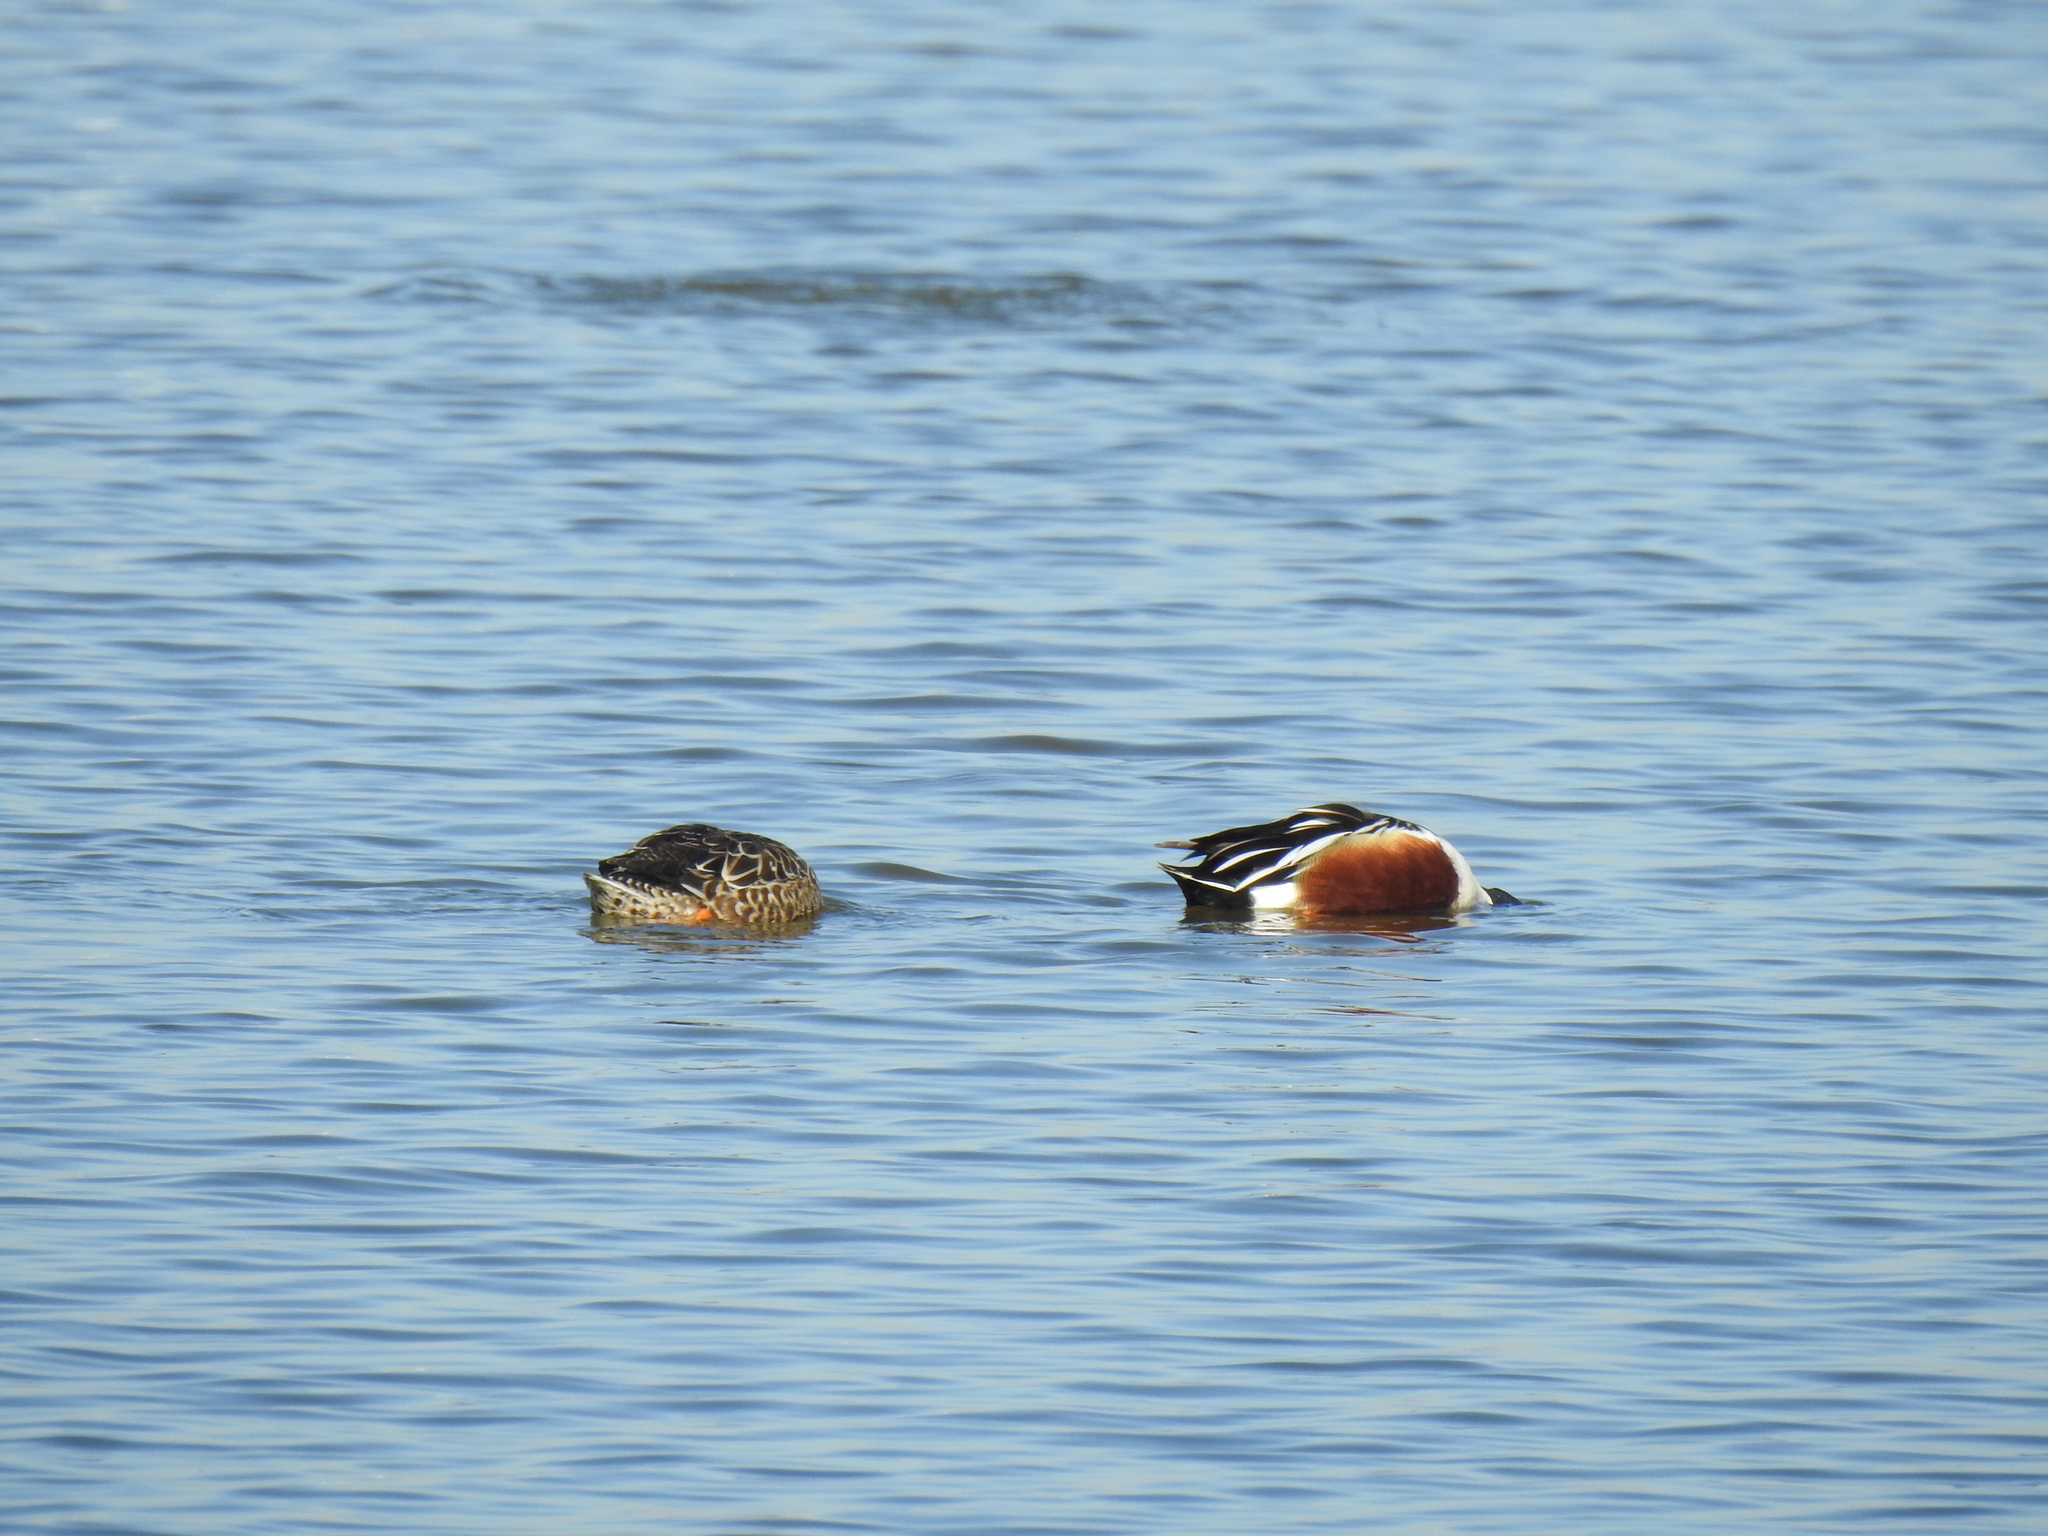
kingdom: Animalia
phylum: Chordata
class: Aves
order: Anseriformes
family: Anatidae
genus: Spatula
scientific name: Spatula clypeata
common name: Northern shoveler
